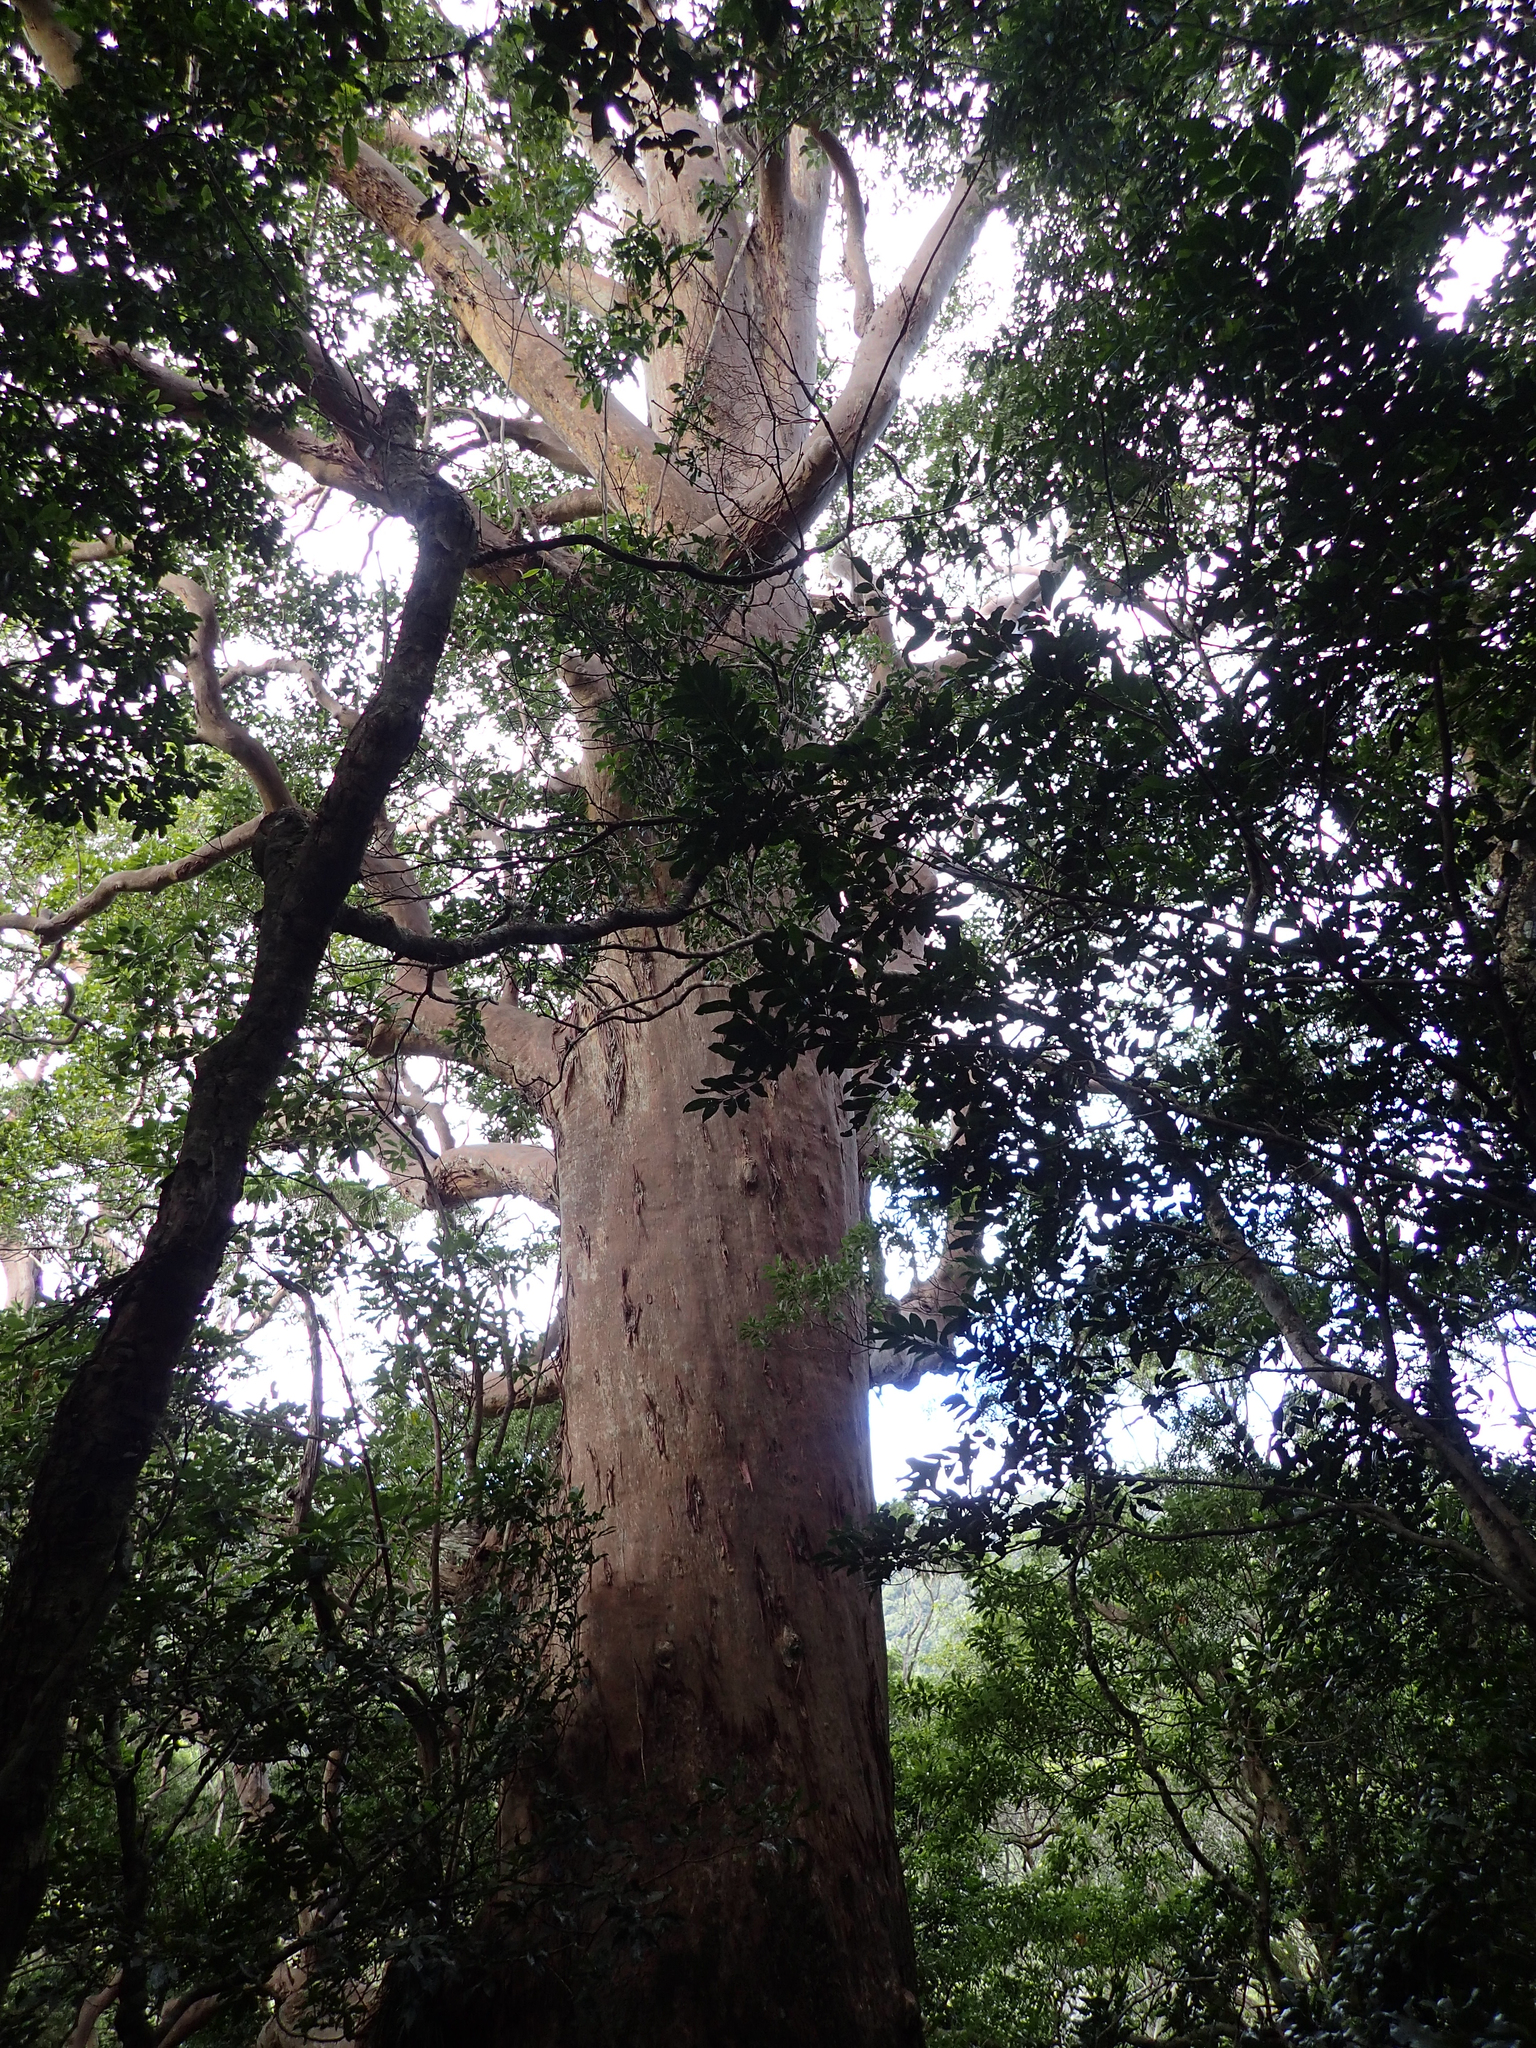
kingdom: Plantae
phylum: Tracheophyta
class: Magnoliopsida
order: Myrtales
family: Myrtaceae
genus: Lophostemon
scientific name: Lophostemon confertus
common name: Brisbane box
